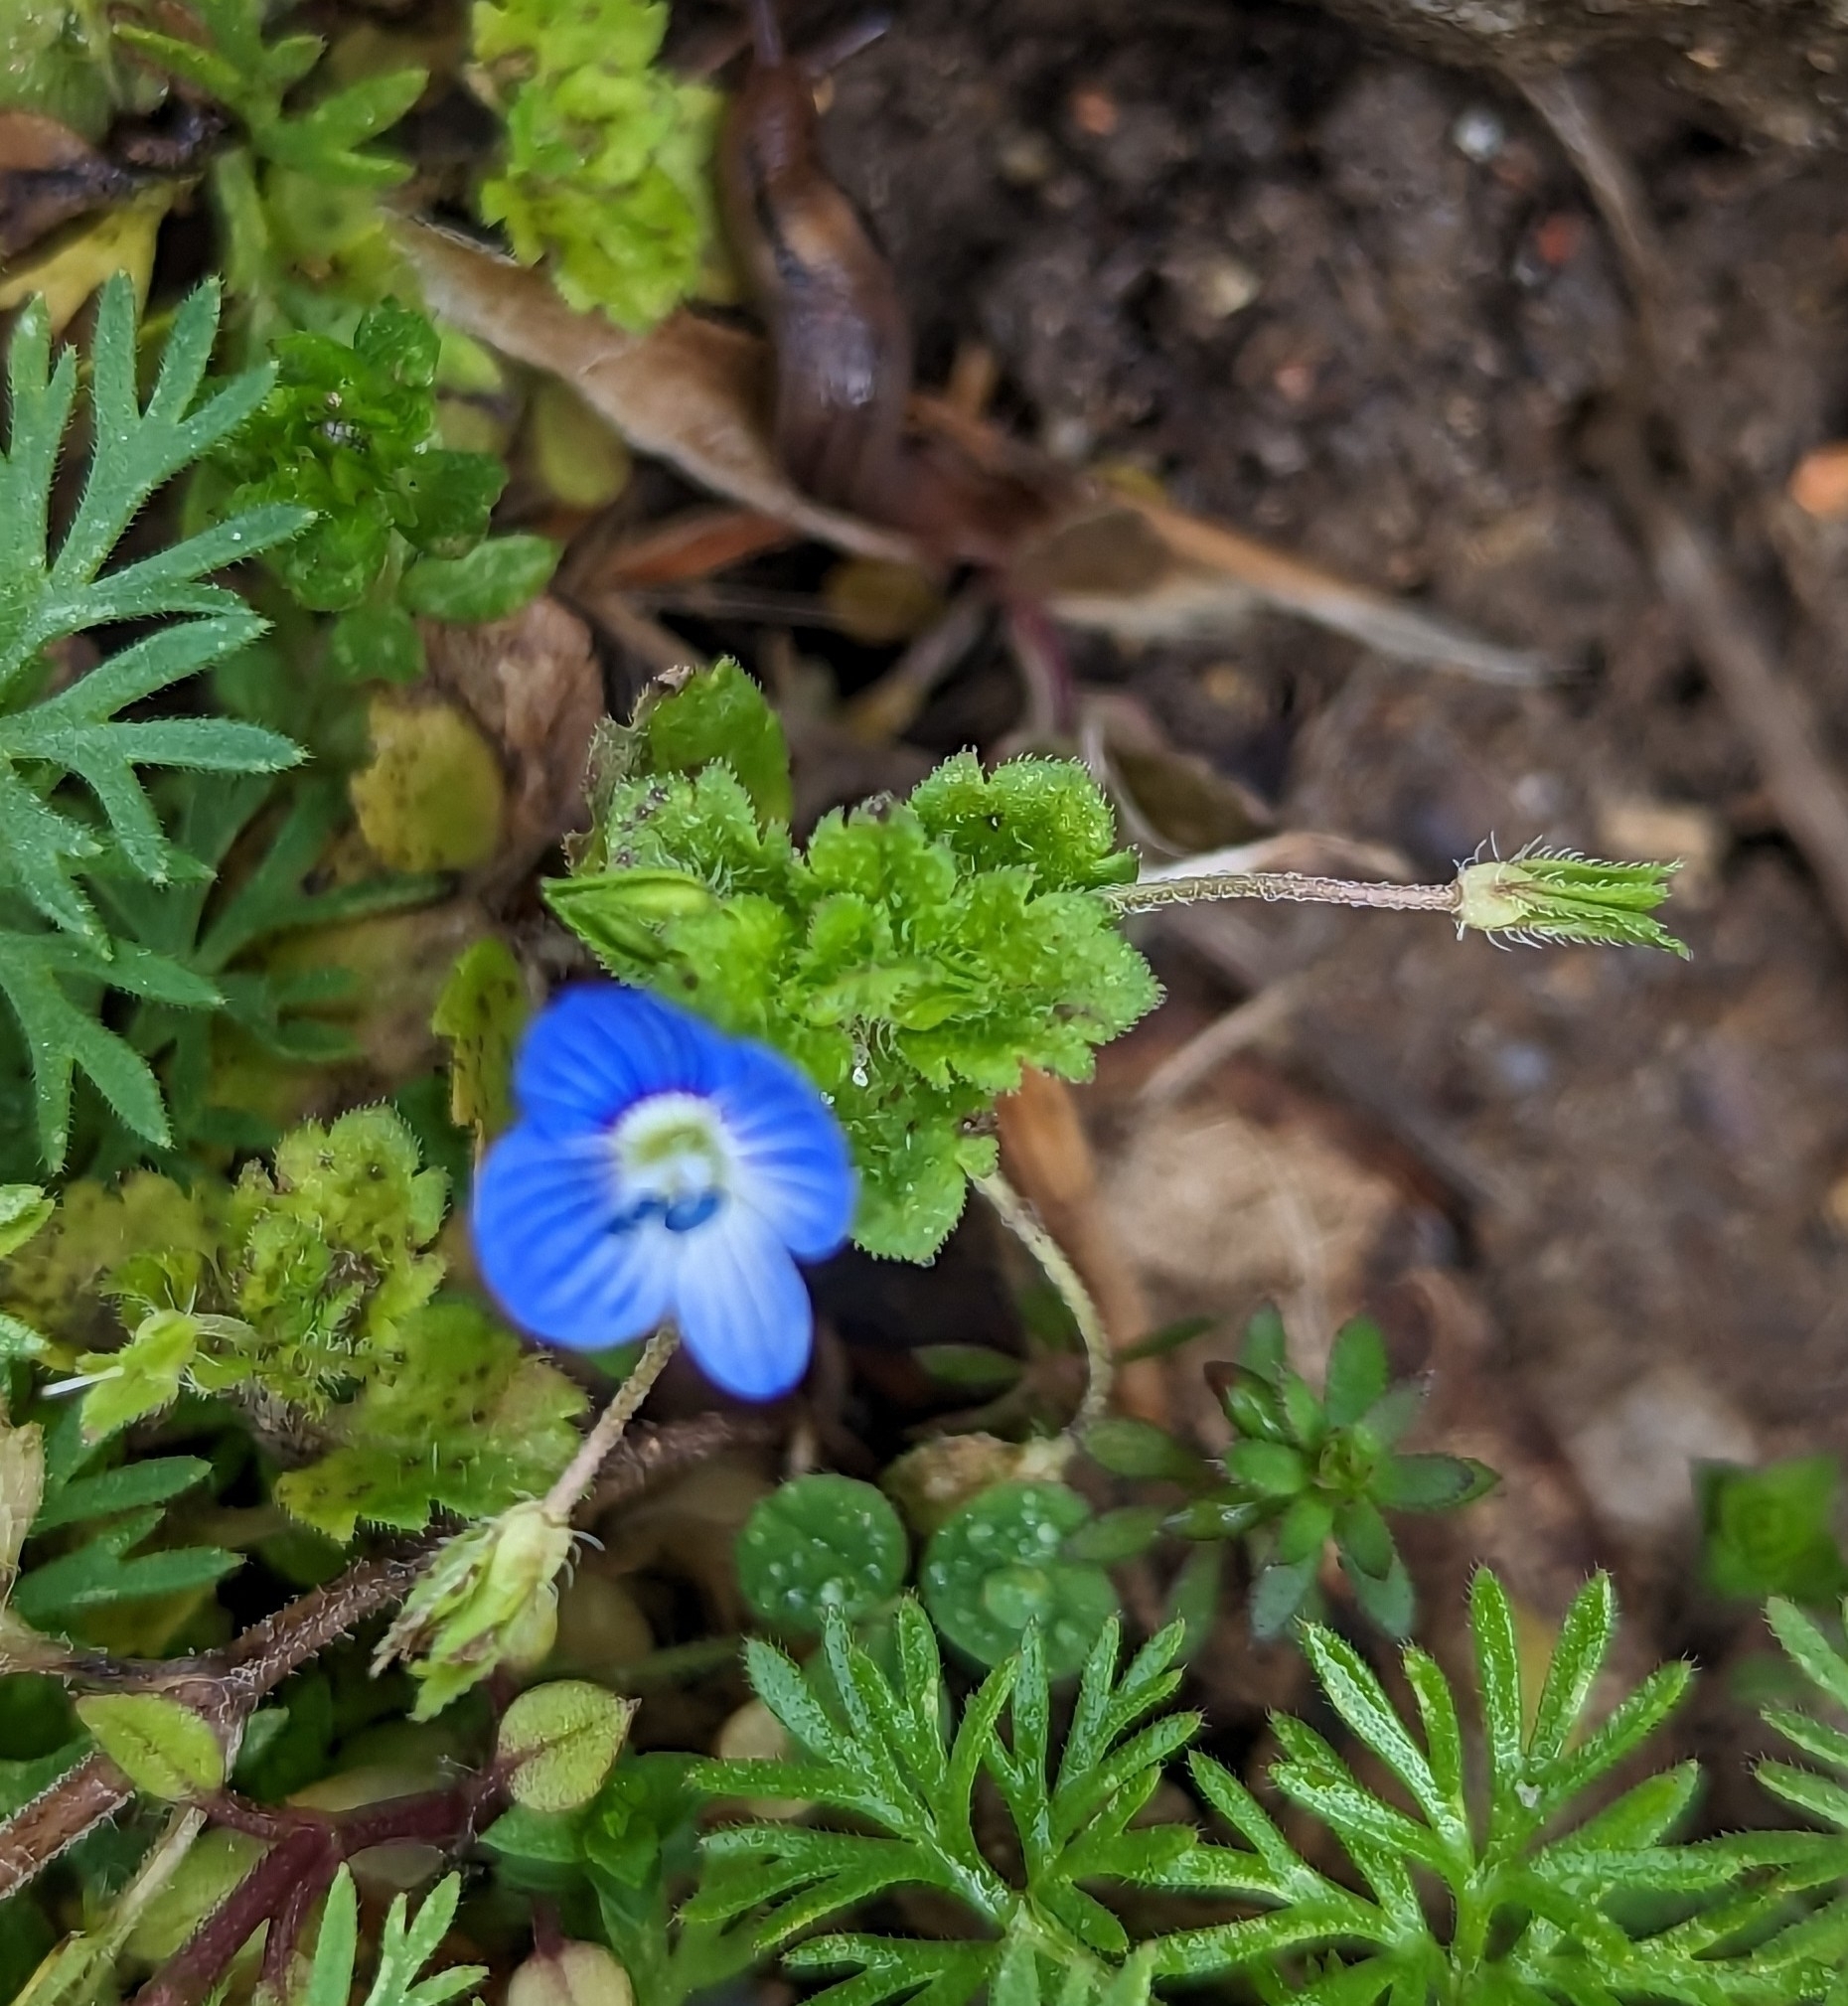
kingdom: Plantae
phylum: Tracheophyta
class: Magnoliopsida
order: Lamiales
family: Plantaginaceae
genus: Veronica
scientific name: Veronica persica
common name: Common field-speedwell
